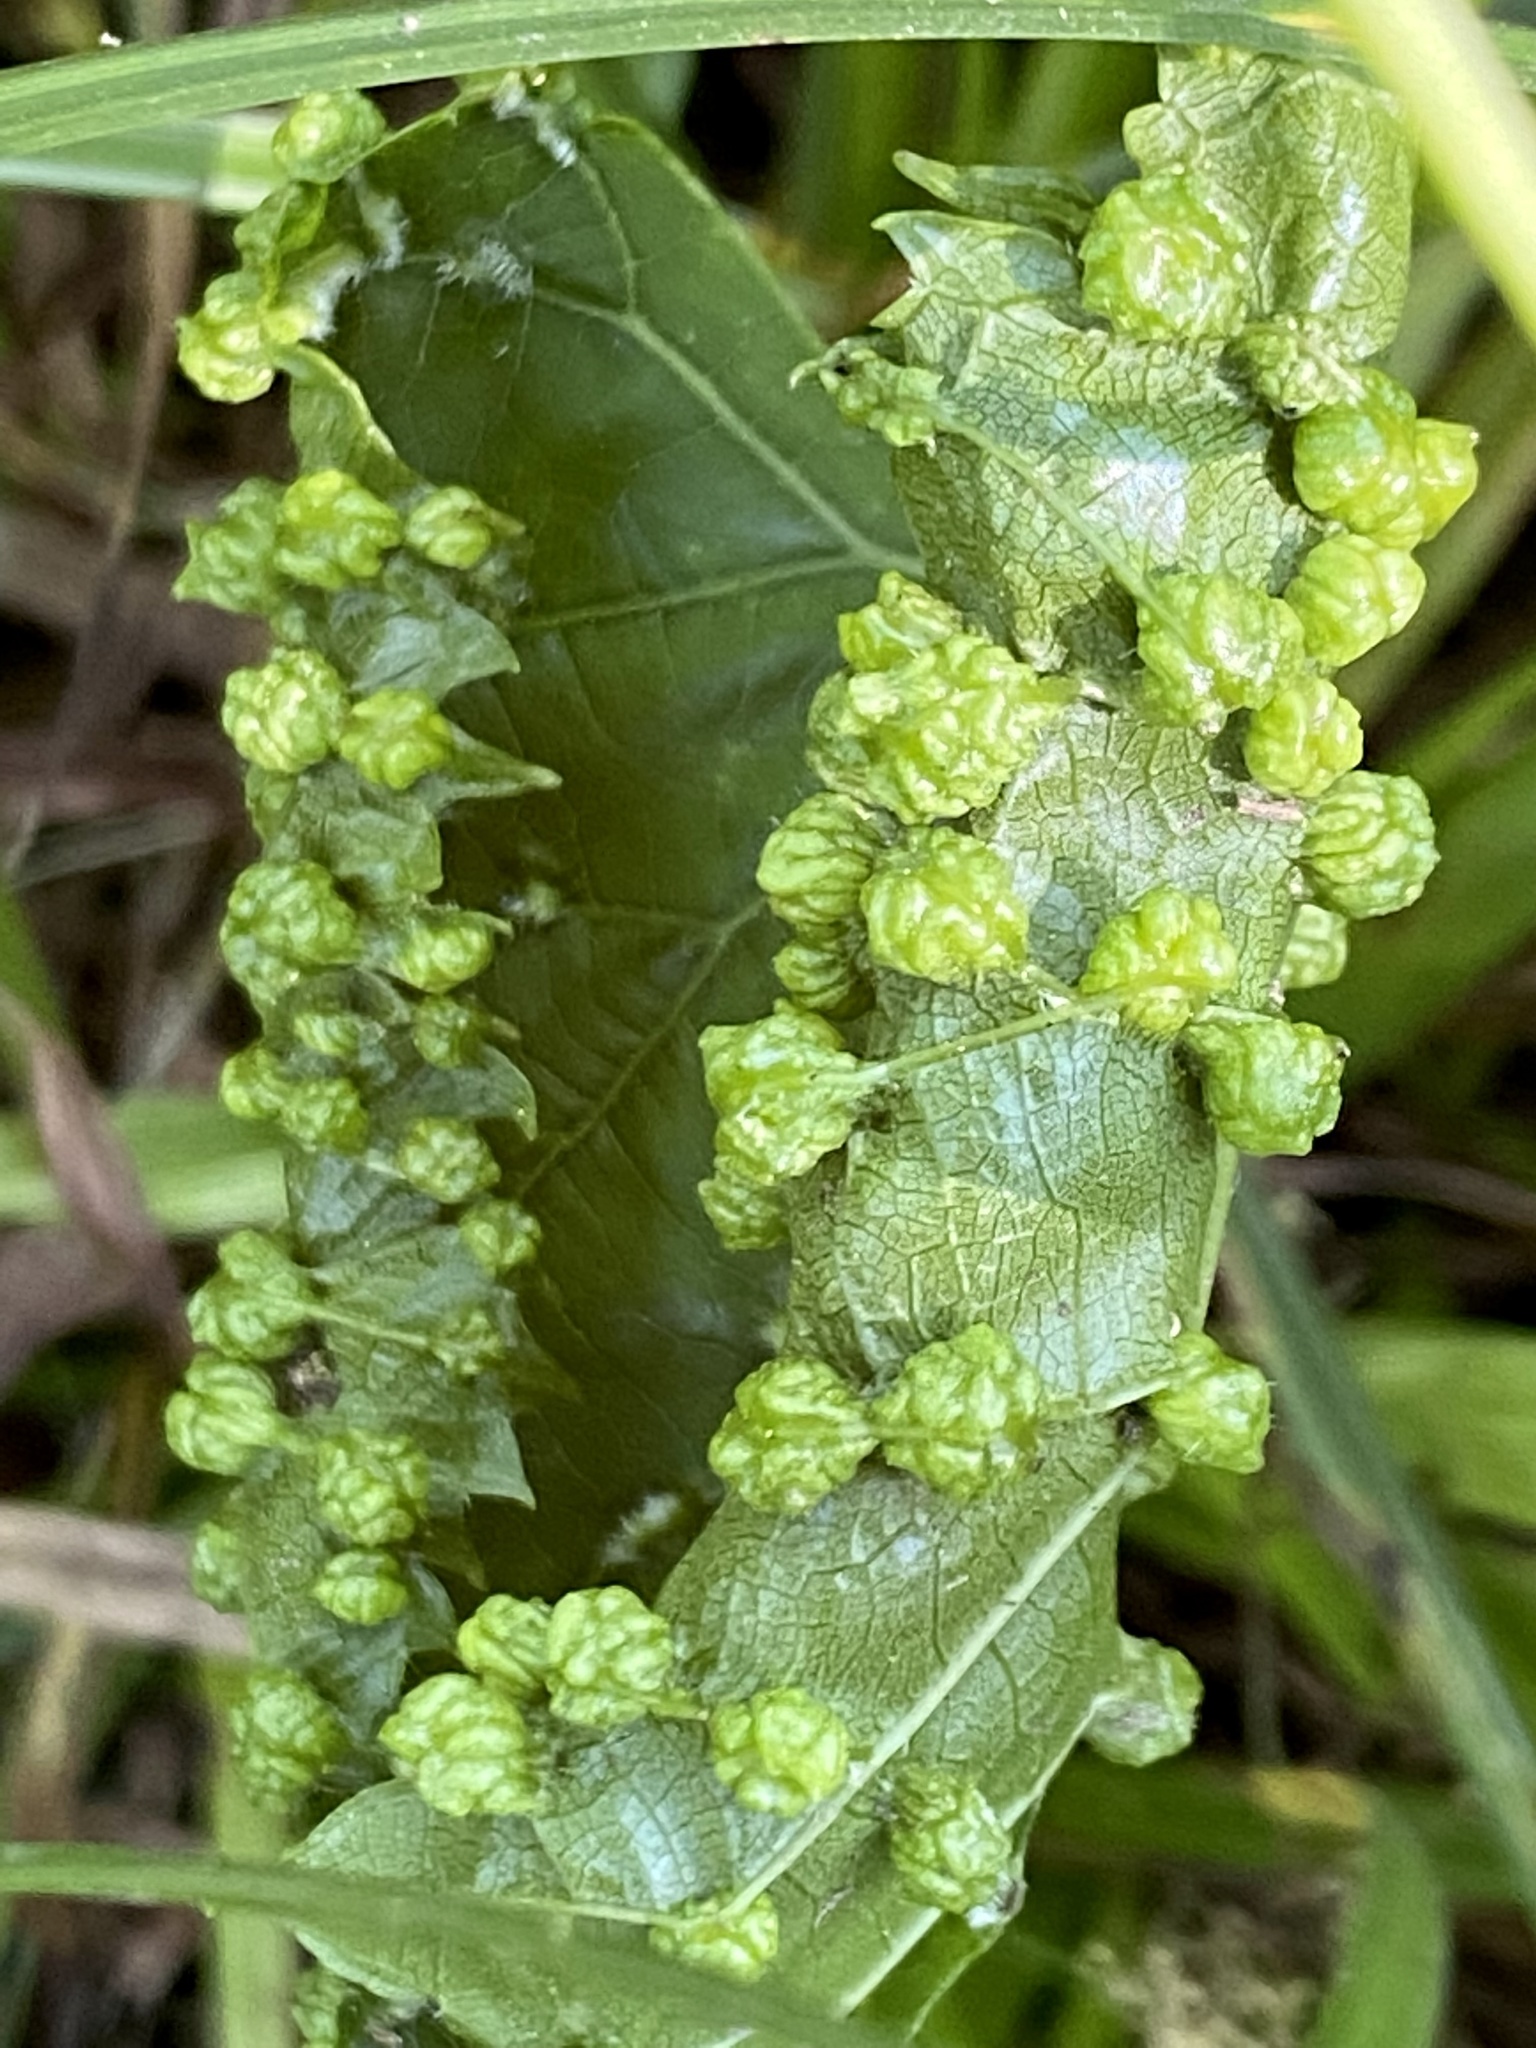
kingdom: Animalia
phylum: Arthropoda
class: Insecta
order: Hemiptera
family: Phylloxeridae
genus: Daktulosphaira
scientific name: Daktulosphaira vitifoliae
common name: Grape phylloxera
